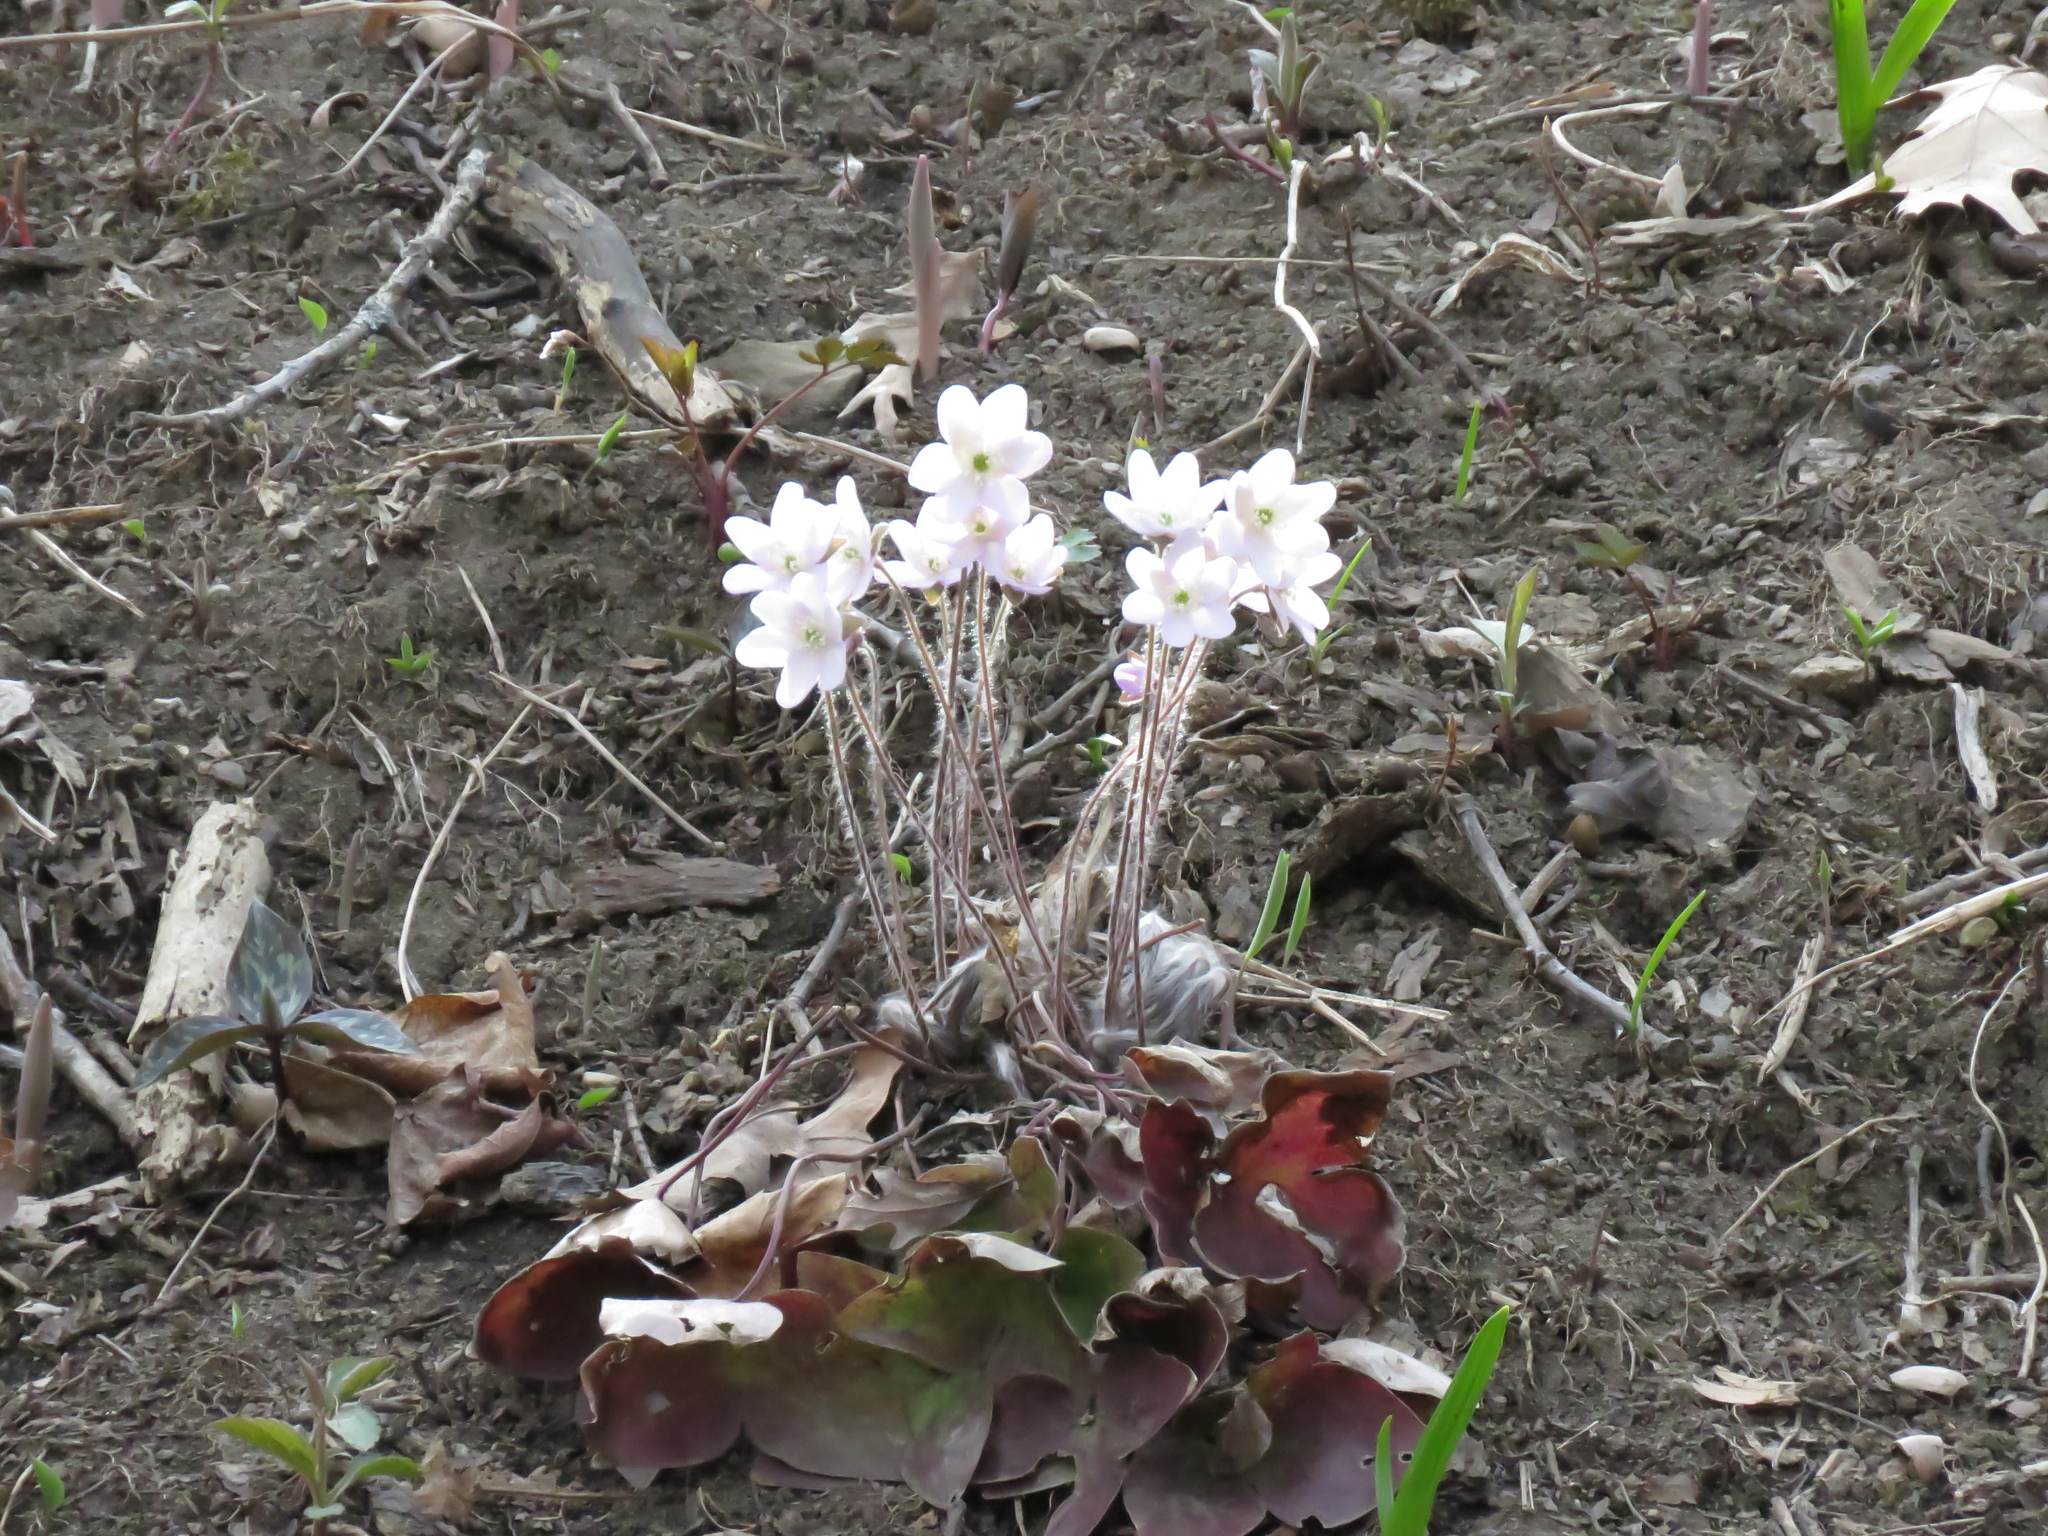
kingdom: Plantae
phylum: Tracheophyta
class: Magnoliopsida
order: Ranunculales
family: Ranunculaceae
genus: Hepatica
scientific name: Hepatica acutiloba
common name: Sharp-lobed hepatica
